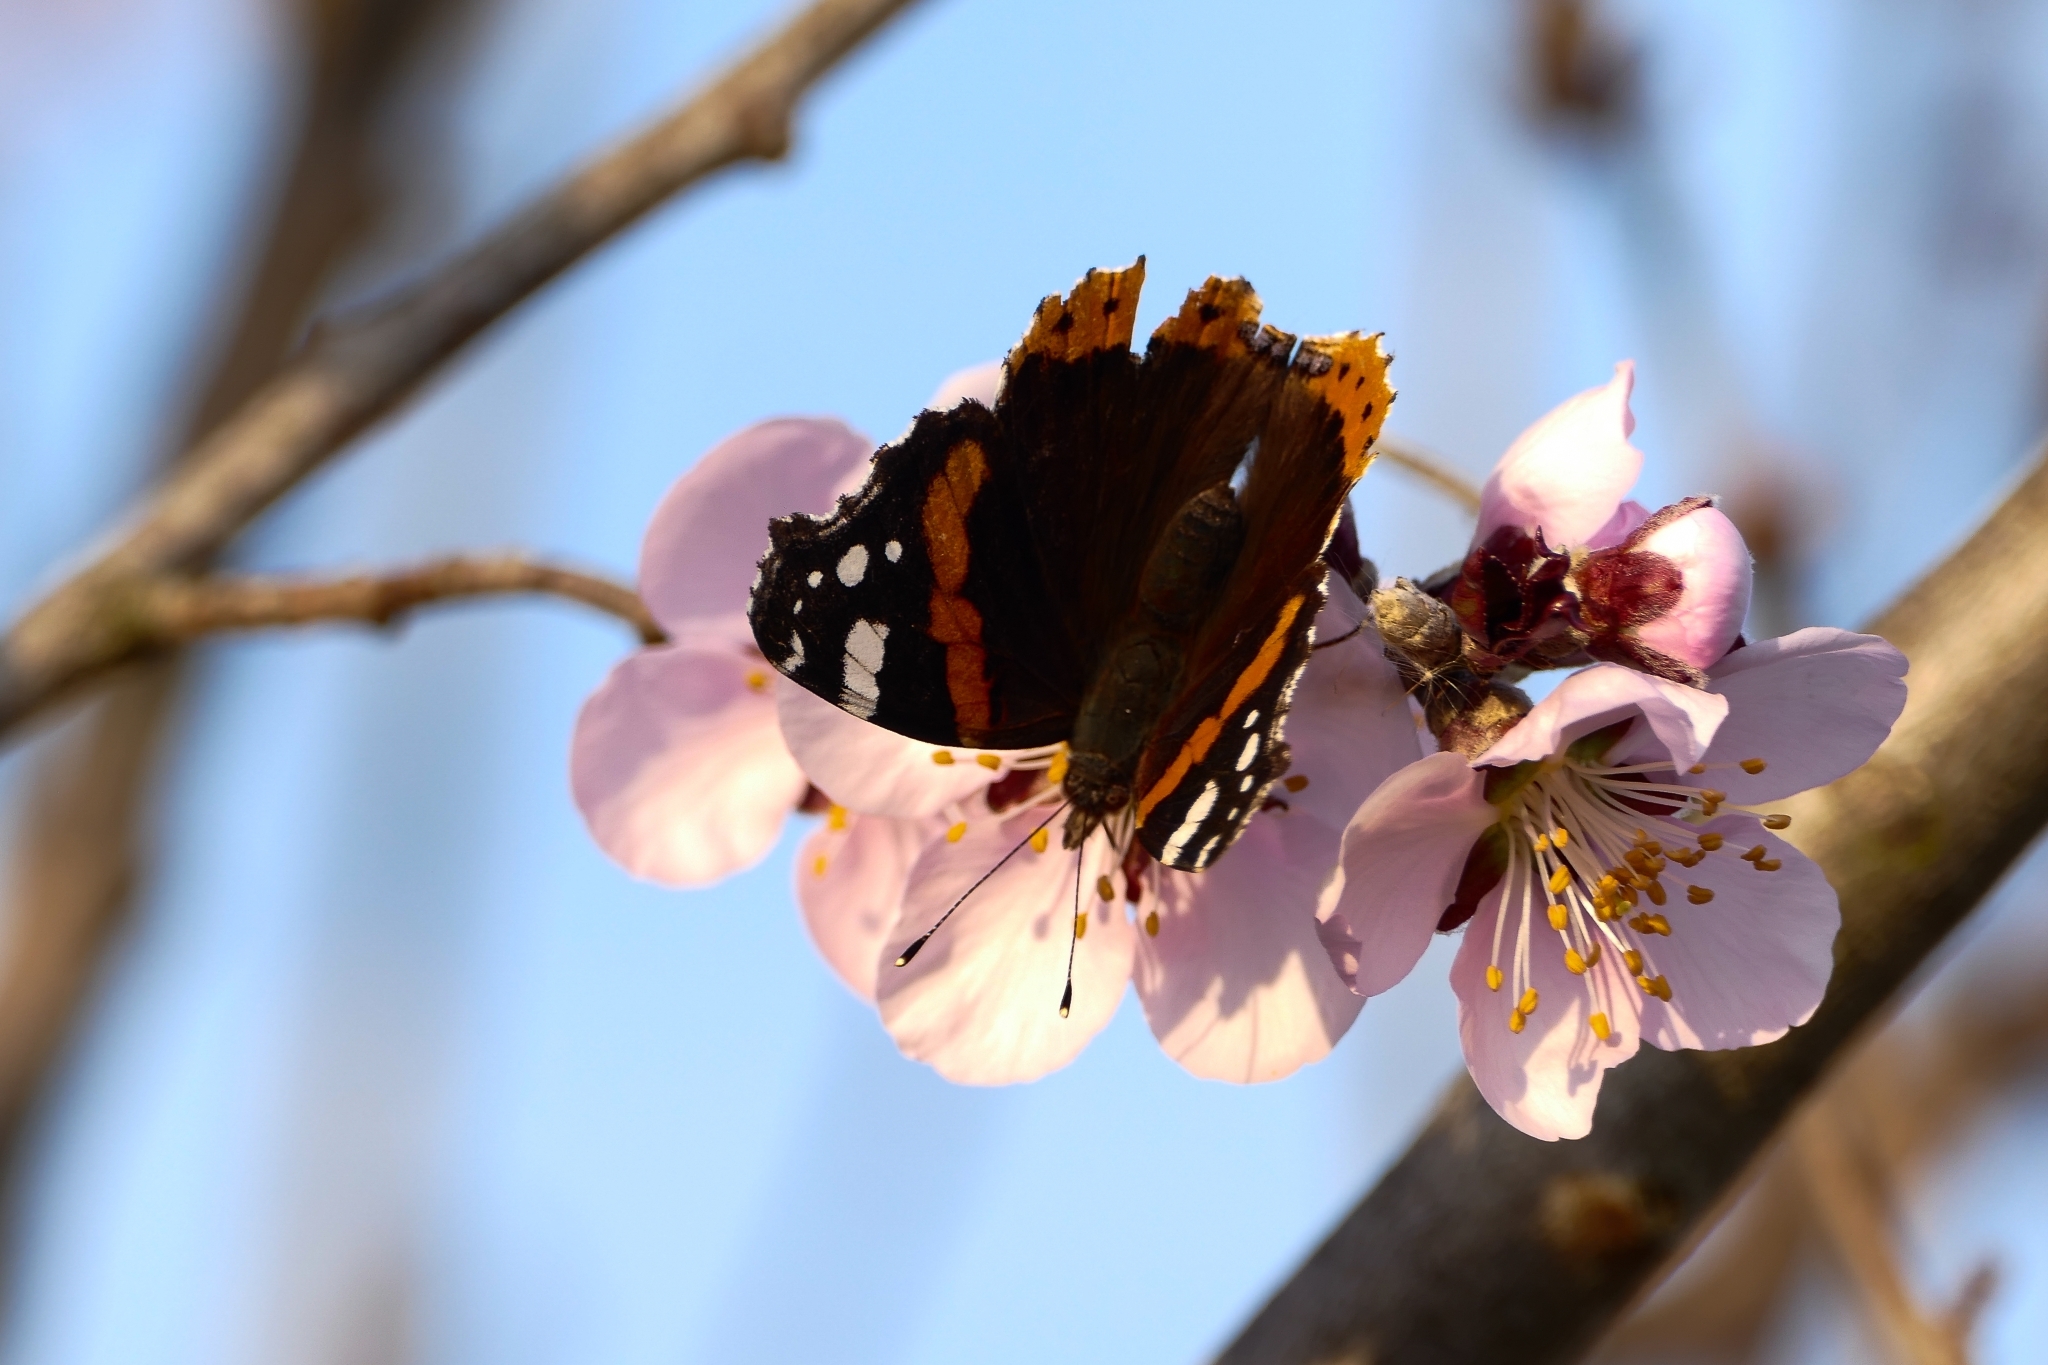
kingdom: Animalia
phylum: Arthropoda
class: Insecta
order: Lepidoptera
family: Nymphalidae
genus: Vanessa
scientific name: Vanessa atalanta
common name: Red admiral
